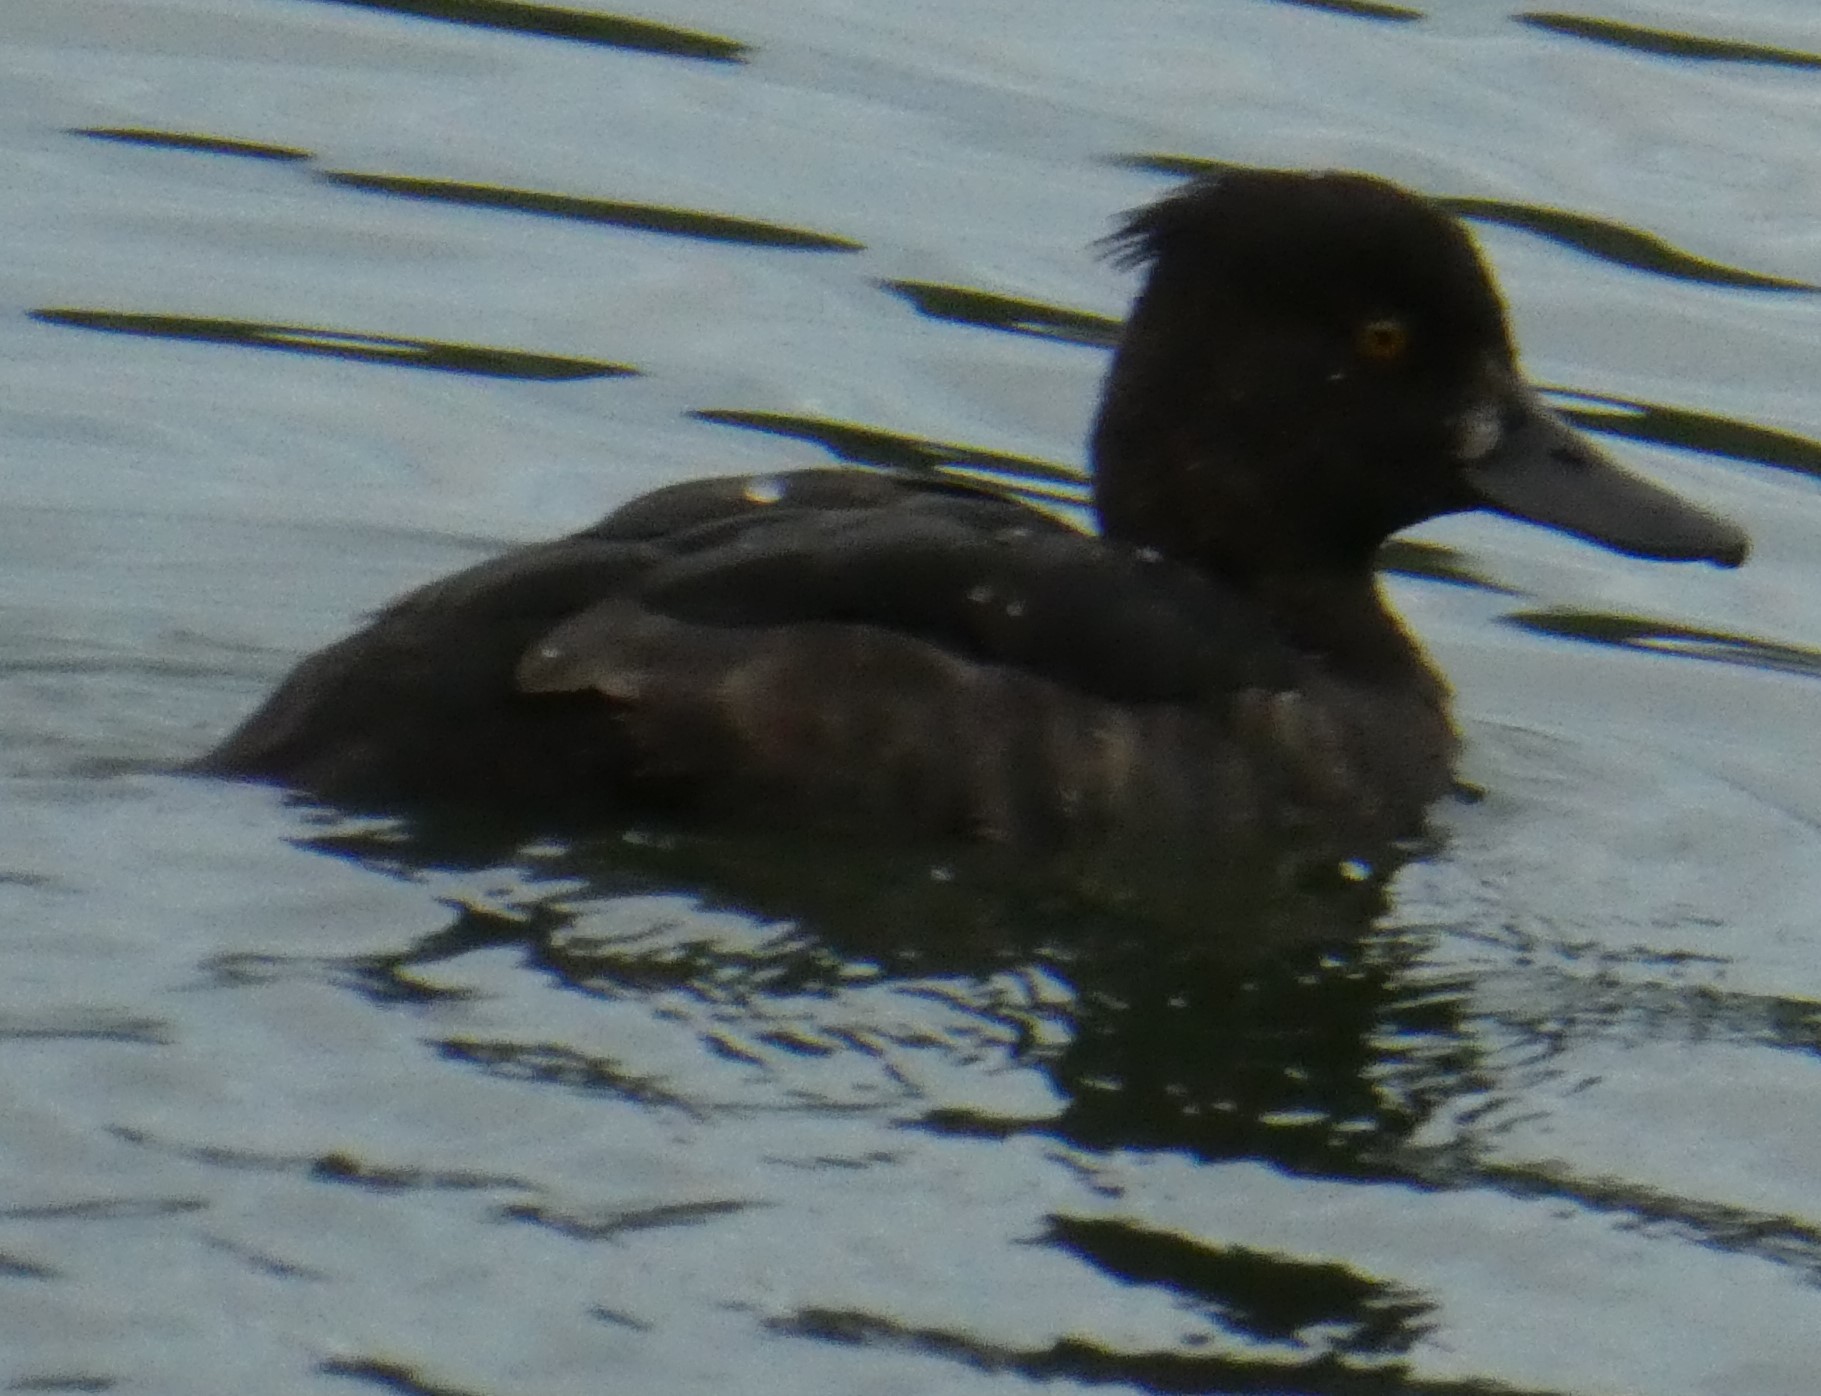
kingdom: Animalia
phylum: Chordata
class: Aves
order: Anseriformes
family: Anatidae
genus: Aythya
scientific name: Aythya fuligula
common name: Tufted duck
